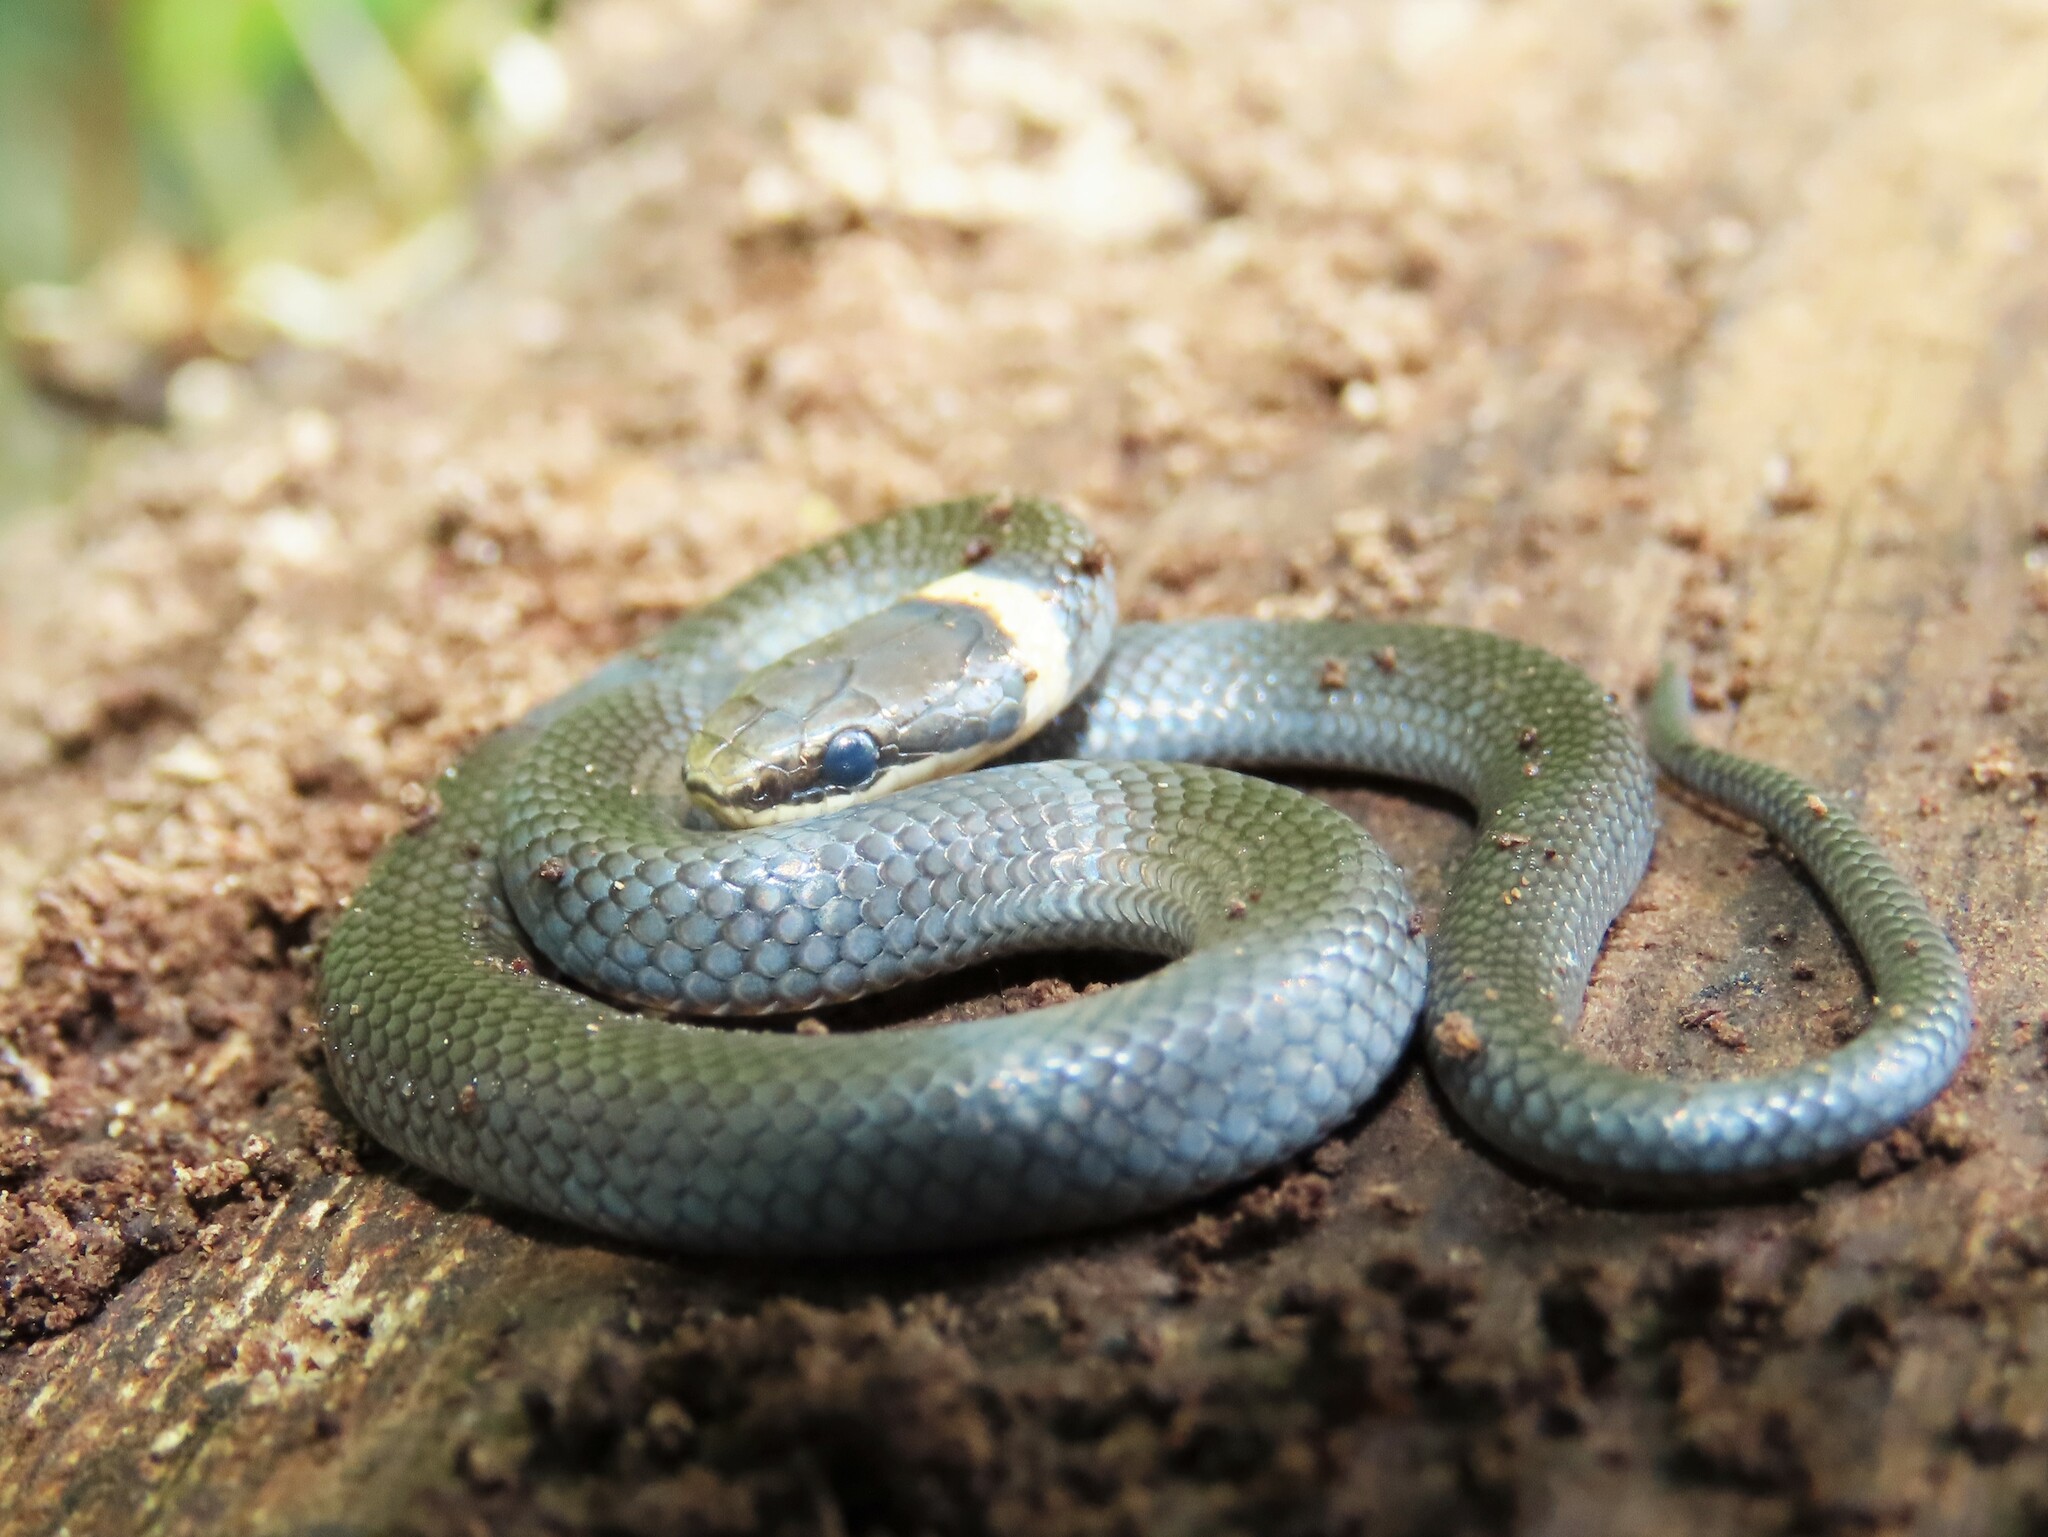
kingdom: Animalia
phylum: Chordata
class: Squamata
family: Colubridae
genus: Diadophis
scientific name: Diadophis punctatus
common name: Ringneck snake
